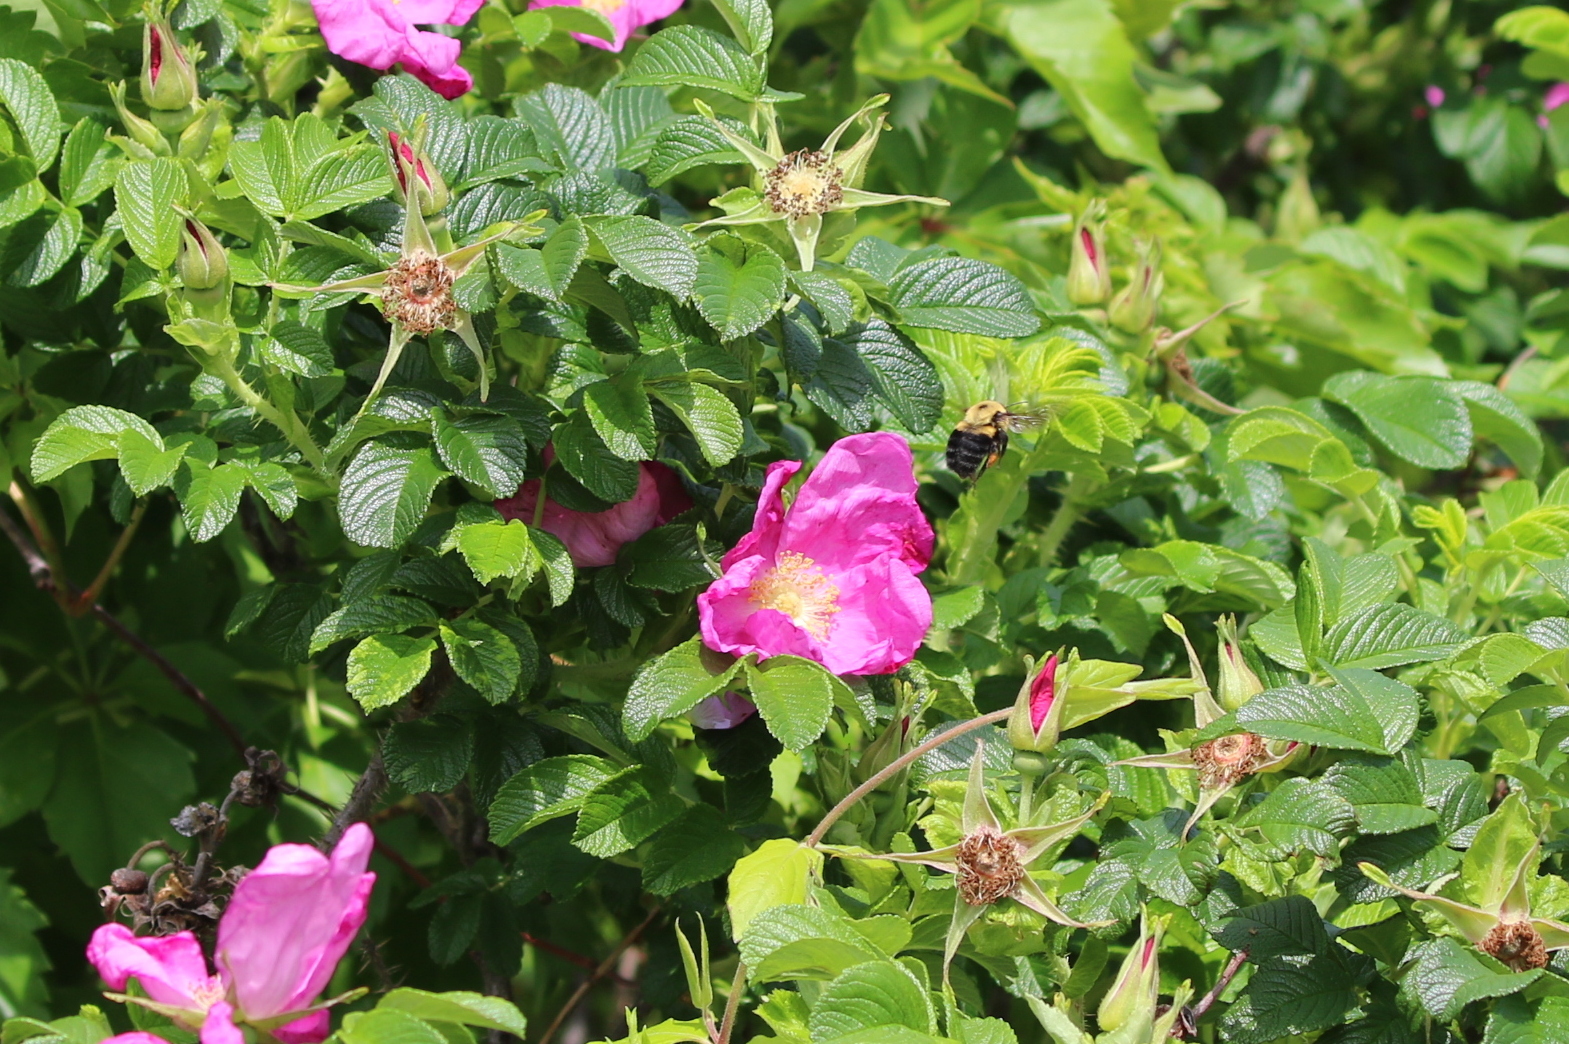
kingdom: Plantae
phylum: Tracheophyta
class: Magnoliopsida
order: Rosales
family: Rosaceae
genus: Rosa
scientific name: Rosa rugosa
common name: Japanese rose
